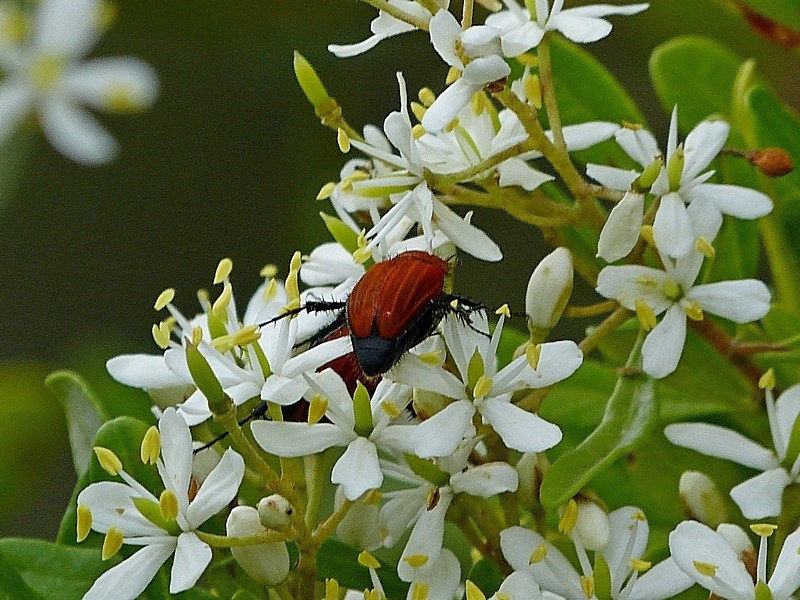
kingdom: Animalia
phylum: Arthropoda
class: Insecta
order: Coleoptera
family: Scarabaeidae
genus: Phyllotocus
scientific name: Phyllotocus ruficollis
